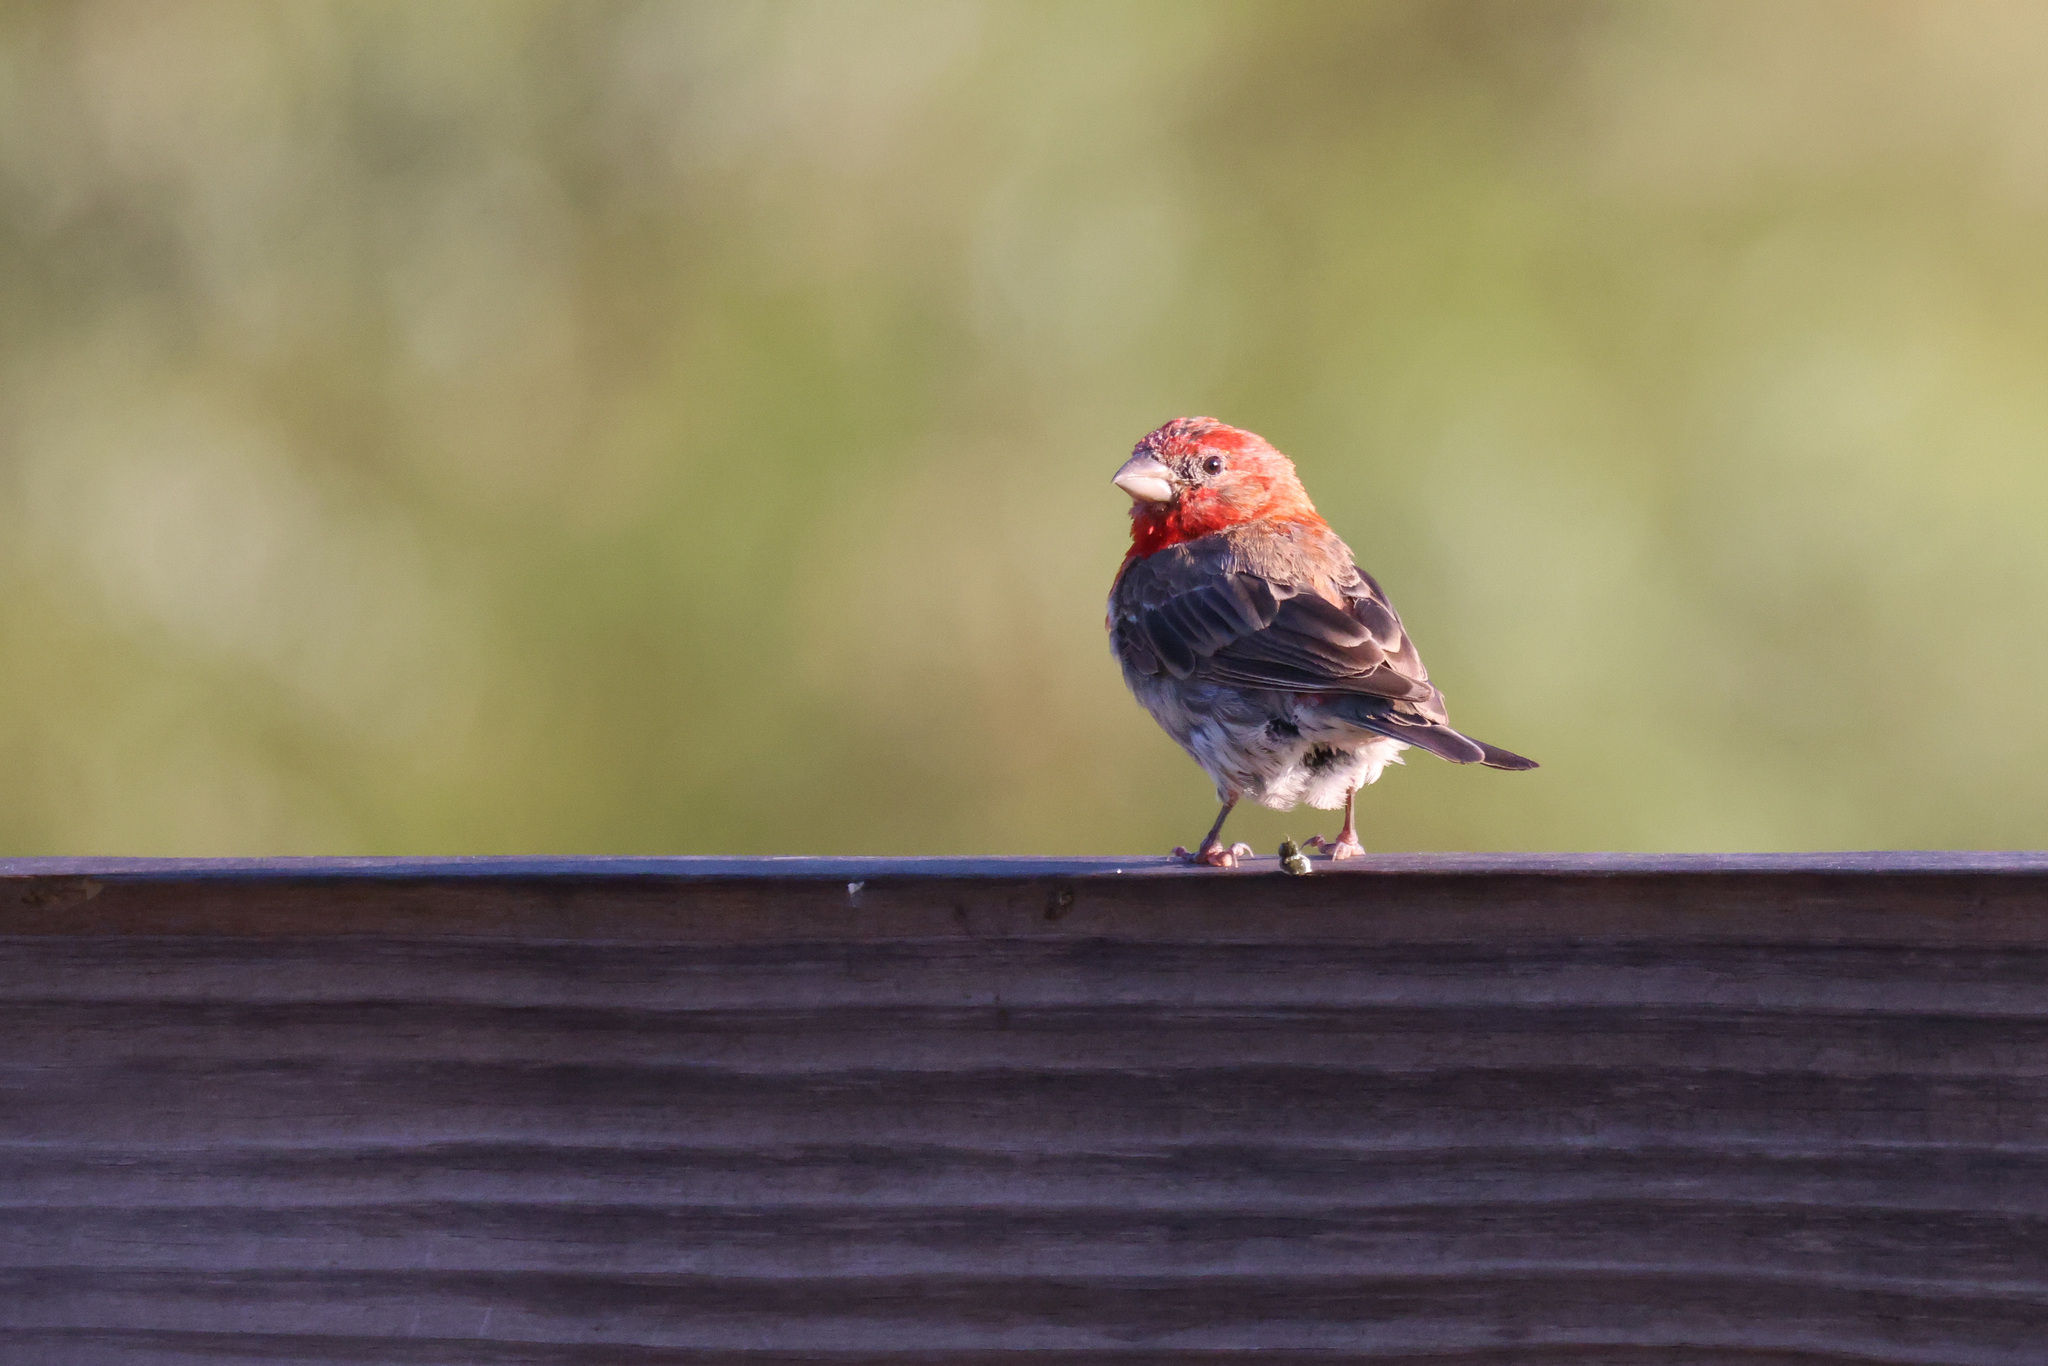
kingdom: Animalia
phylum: Chordata
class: Aves
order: Passeriformes
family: Fringillidae
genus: Haemorhous
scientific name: Haemorhous mexicanus
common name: House finch
